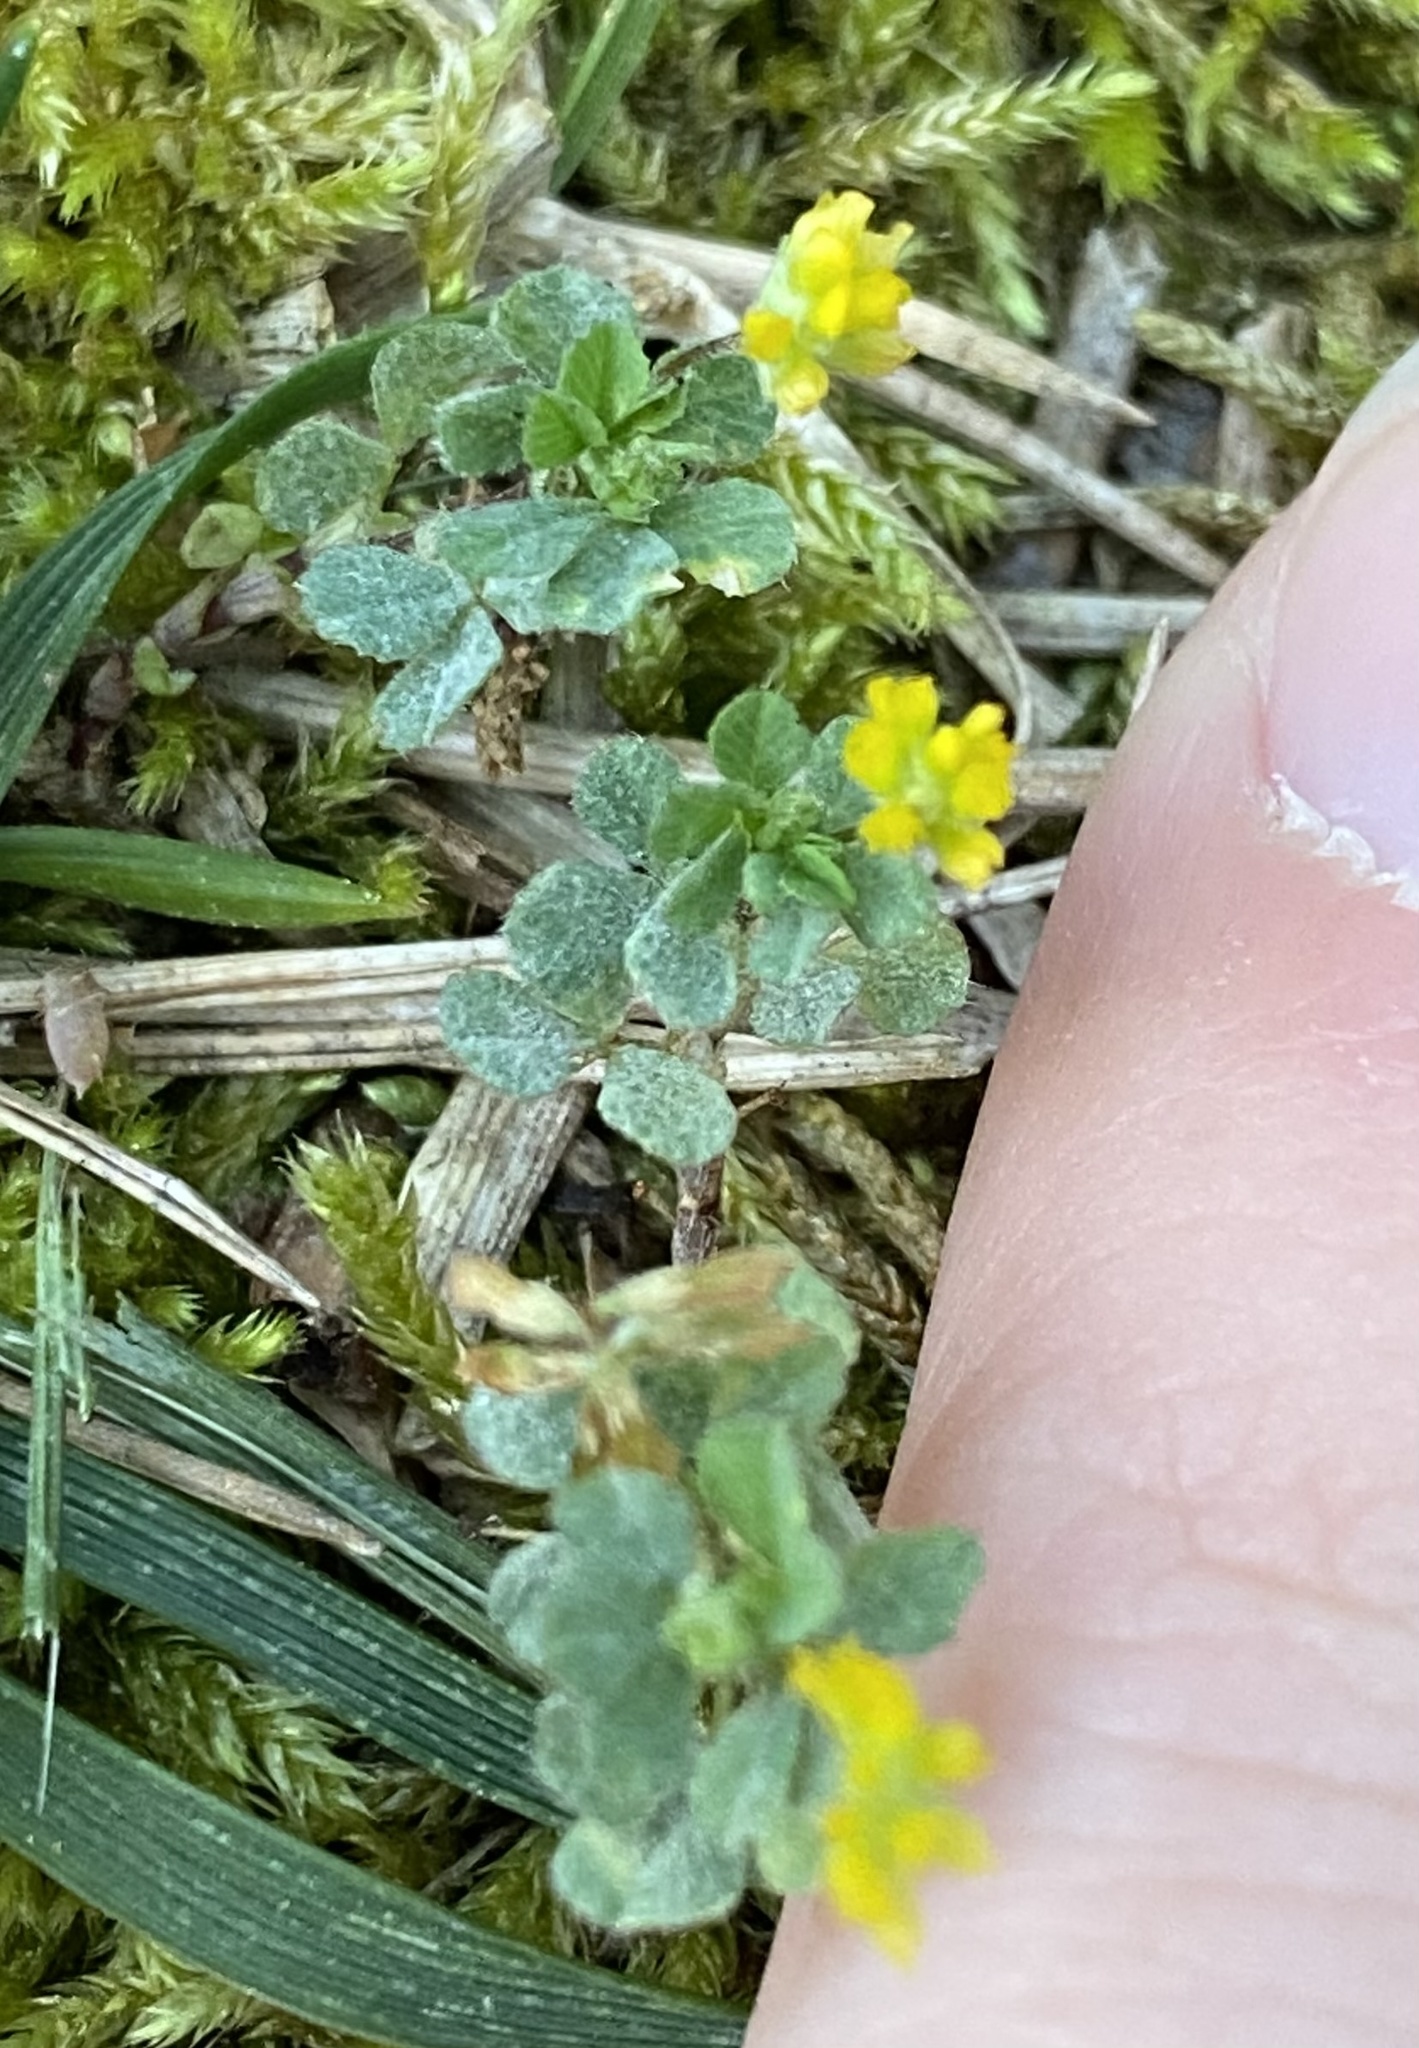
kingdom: Plantae
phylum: Tracheophyta
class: Magnoliopsida
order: Fabales
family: Fabaceae
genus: Trifolium
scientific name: Trifolium dubium
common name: Suckling clover
